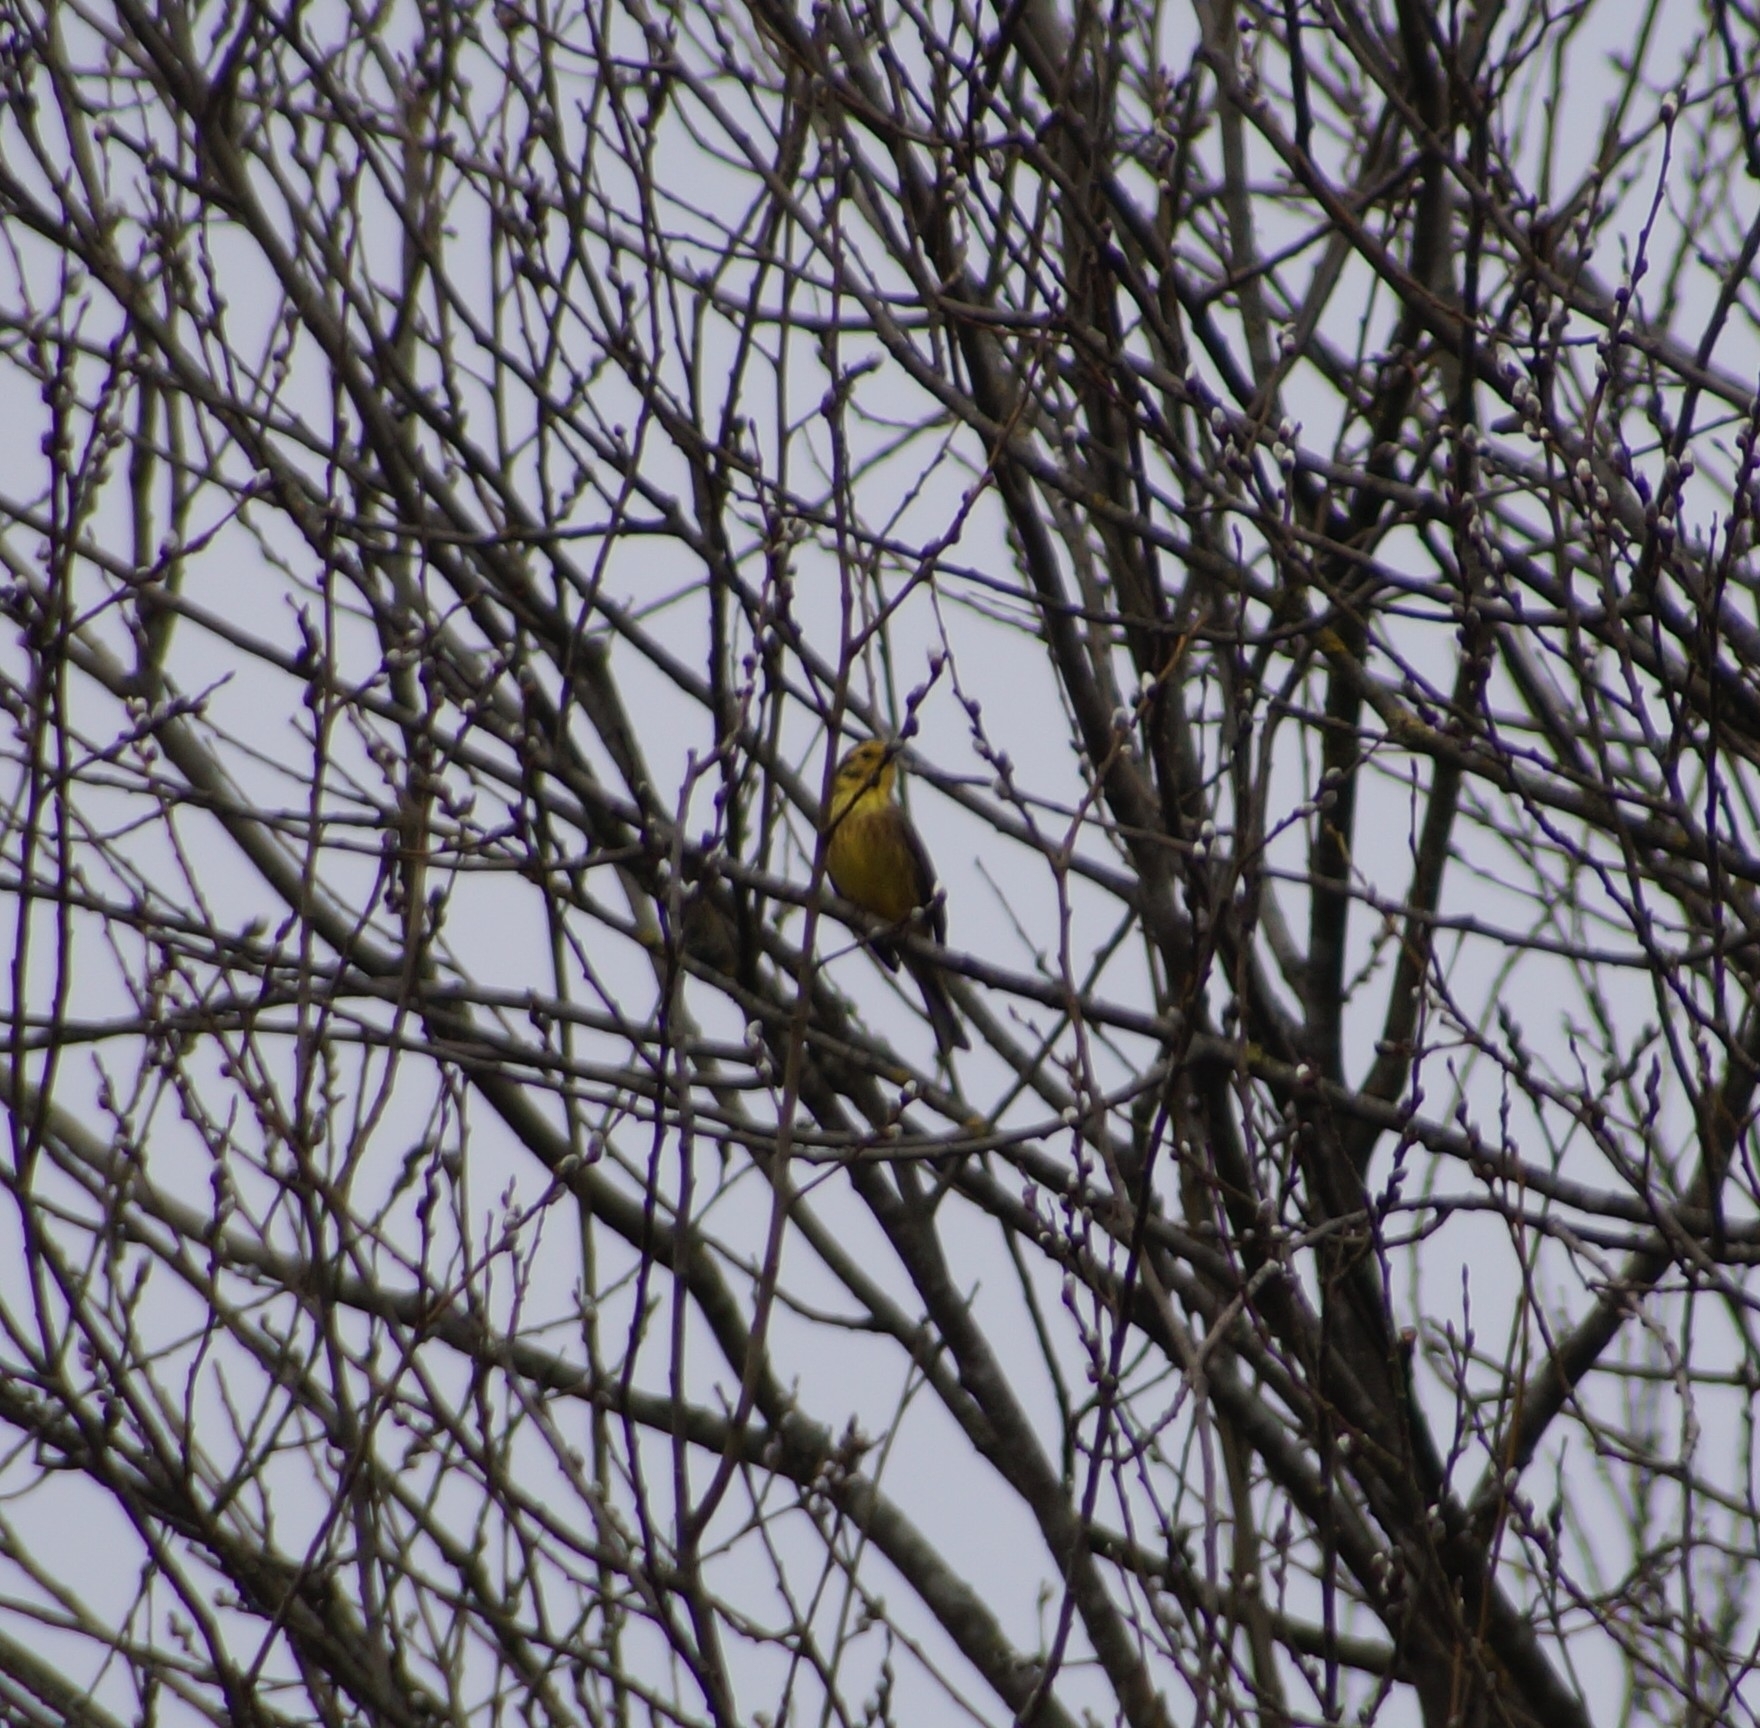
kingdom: Animalia
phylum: Chordata
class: Aves
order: Passeriformes
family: Emberizidae
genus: Emberiza
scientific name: Emberiza citrinella
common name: Yellowhammer
